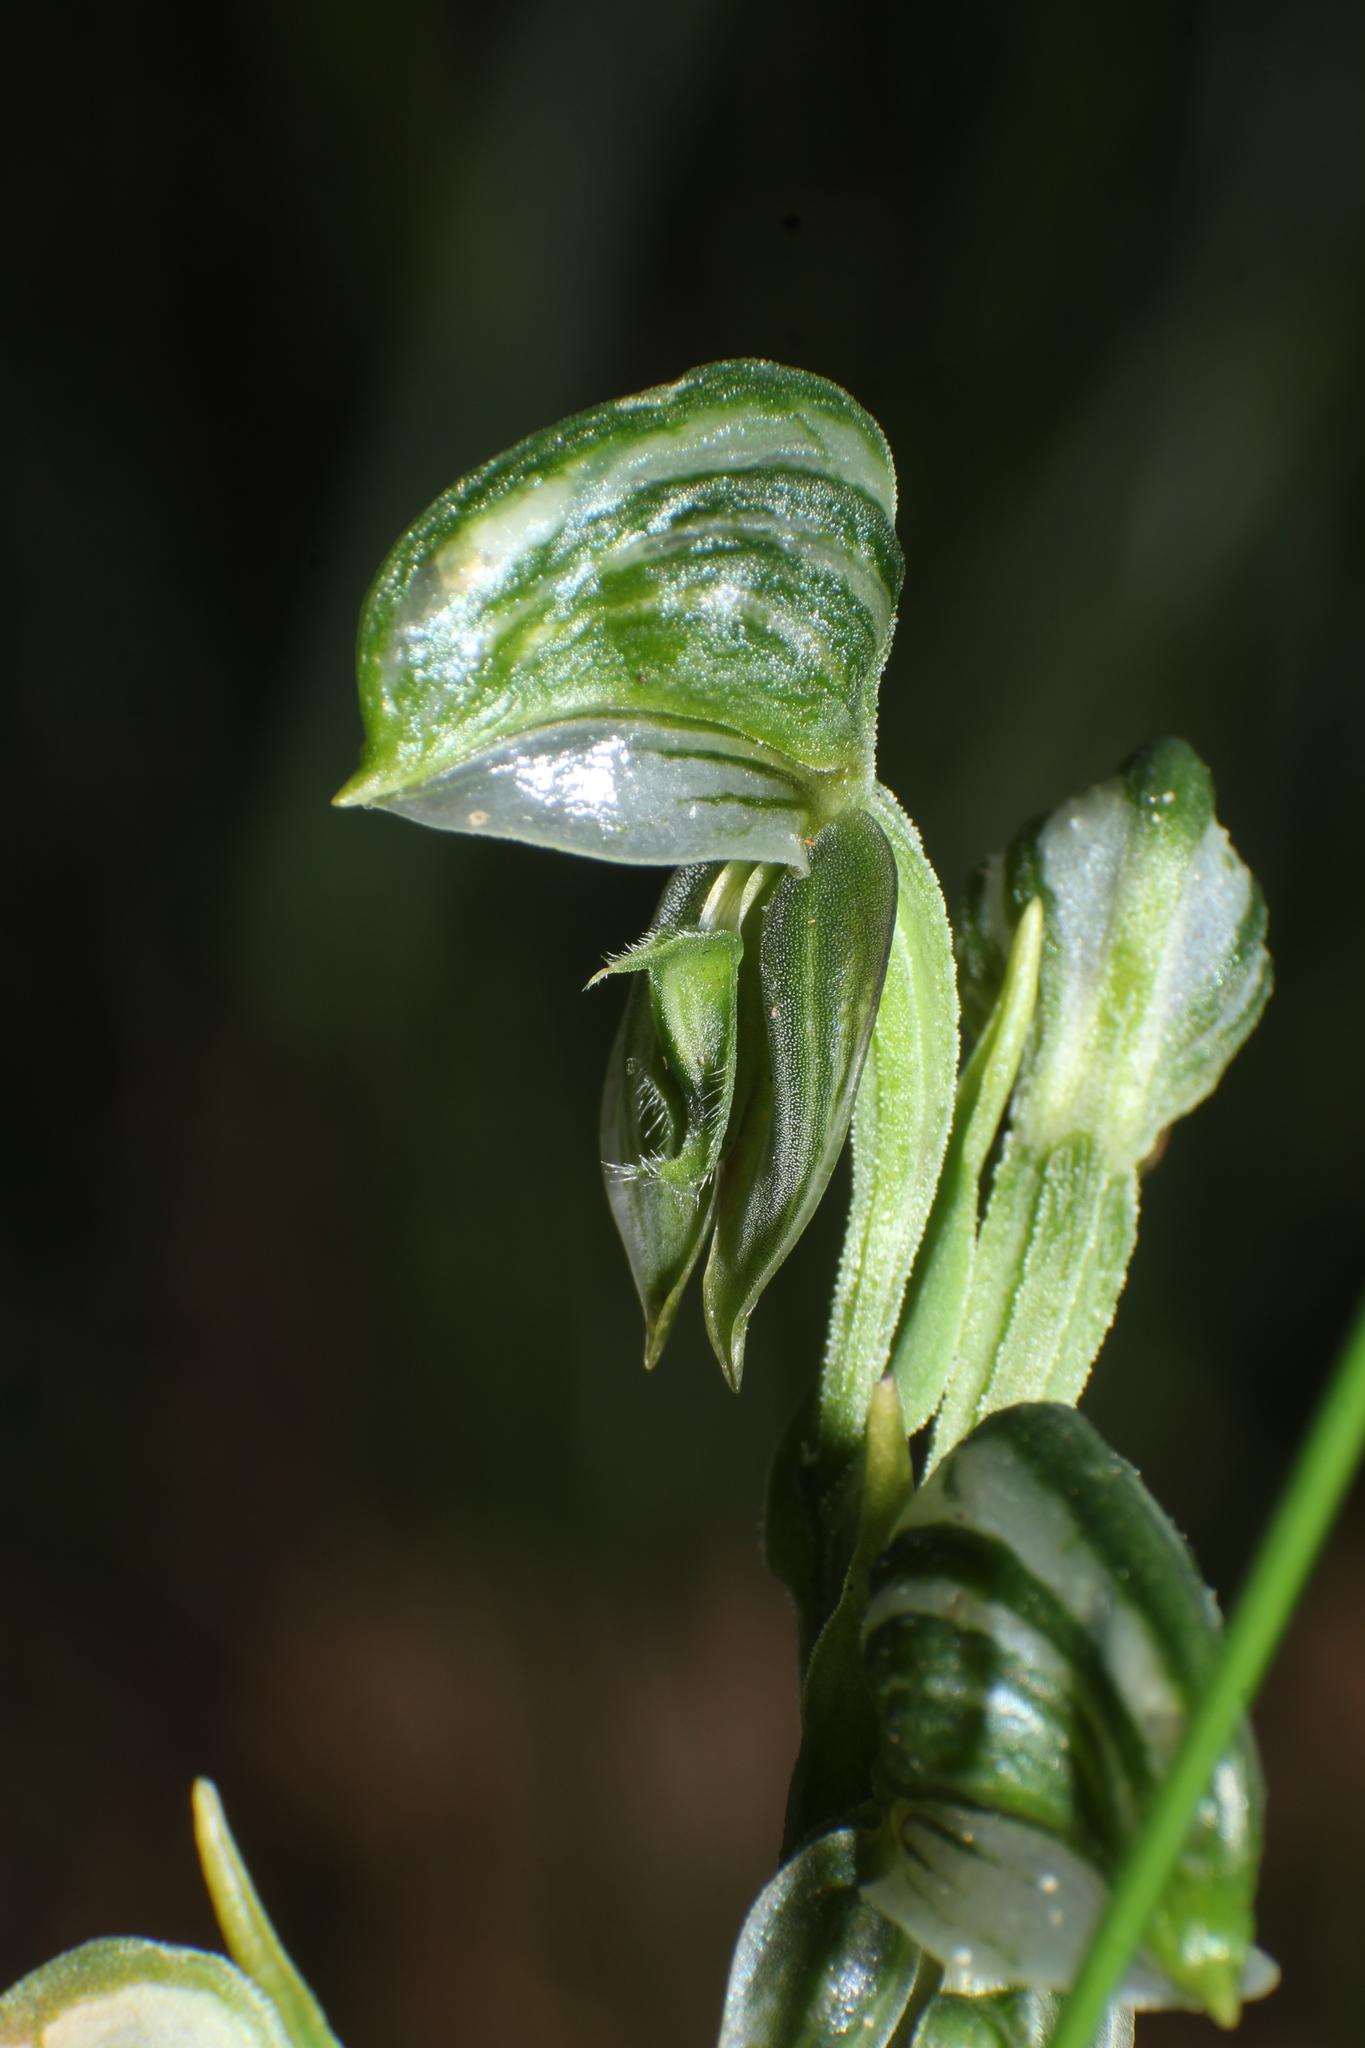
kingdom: Plantae
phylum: Tracheophyta
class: Liliopsida
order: Asparagales
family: Orchidaceae
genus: Pterostylis
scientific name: Pterostylis vittata
